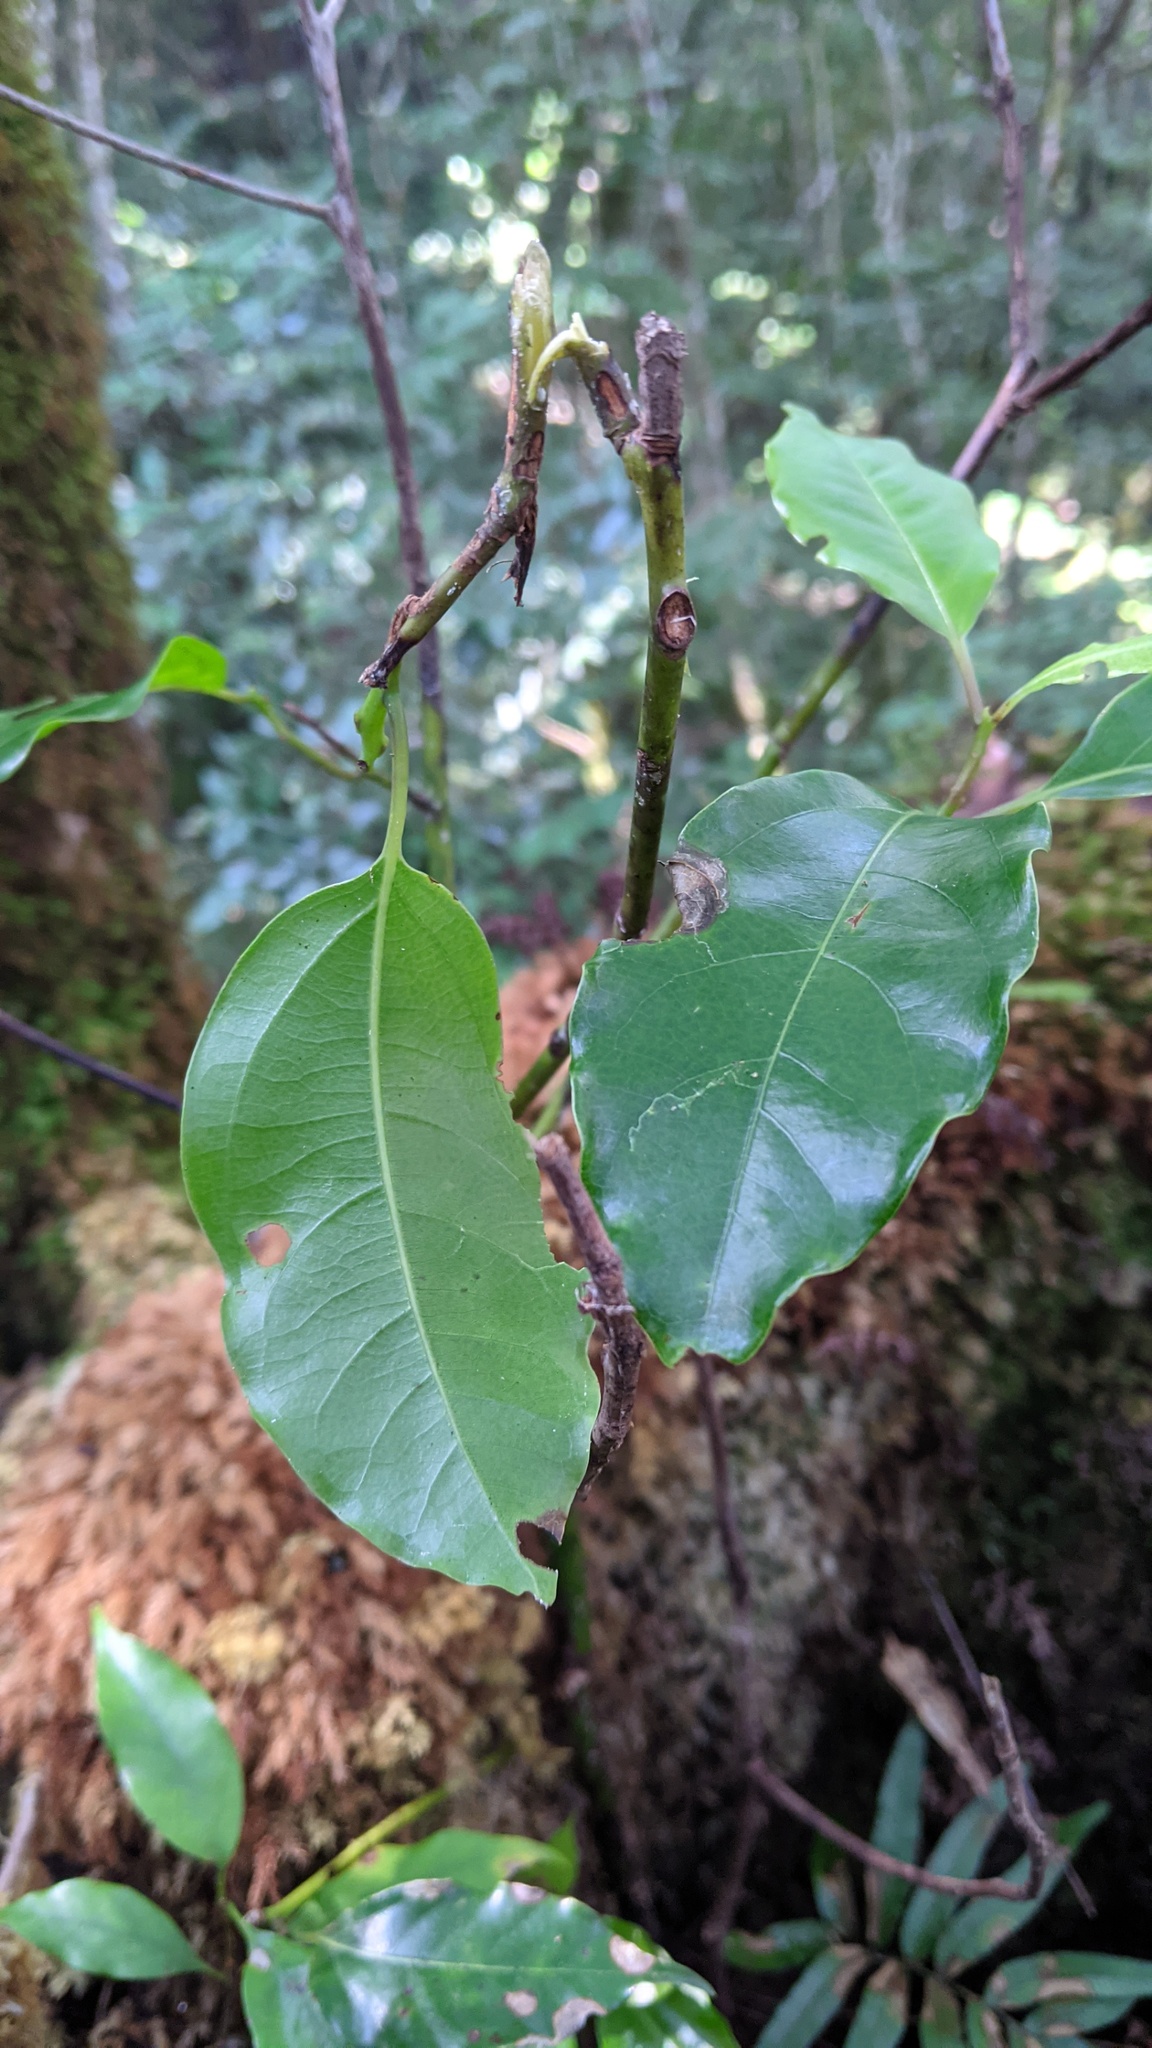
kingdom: Plantae
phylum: Tracheophyta
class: Magnoliopsida
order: Laurales
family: Lauraceae
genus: Cinnamomum
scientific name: Cinnamomum micranthum
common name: Chinese-sassafras
